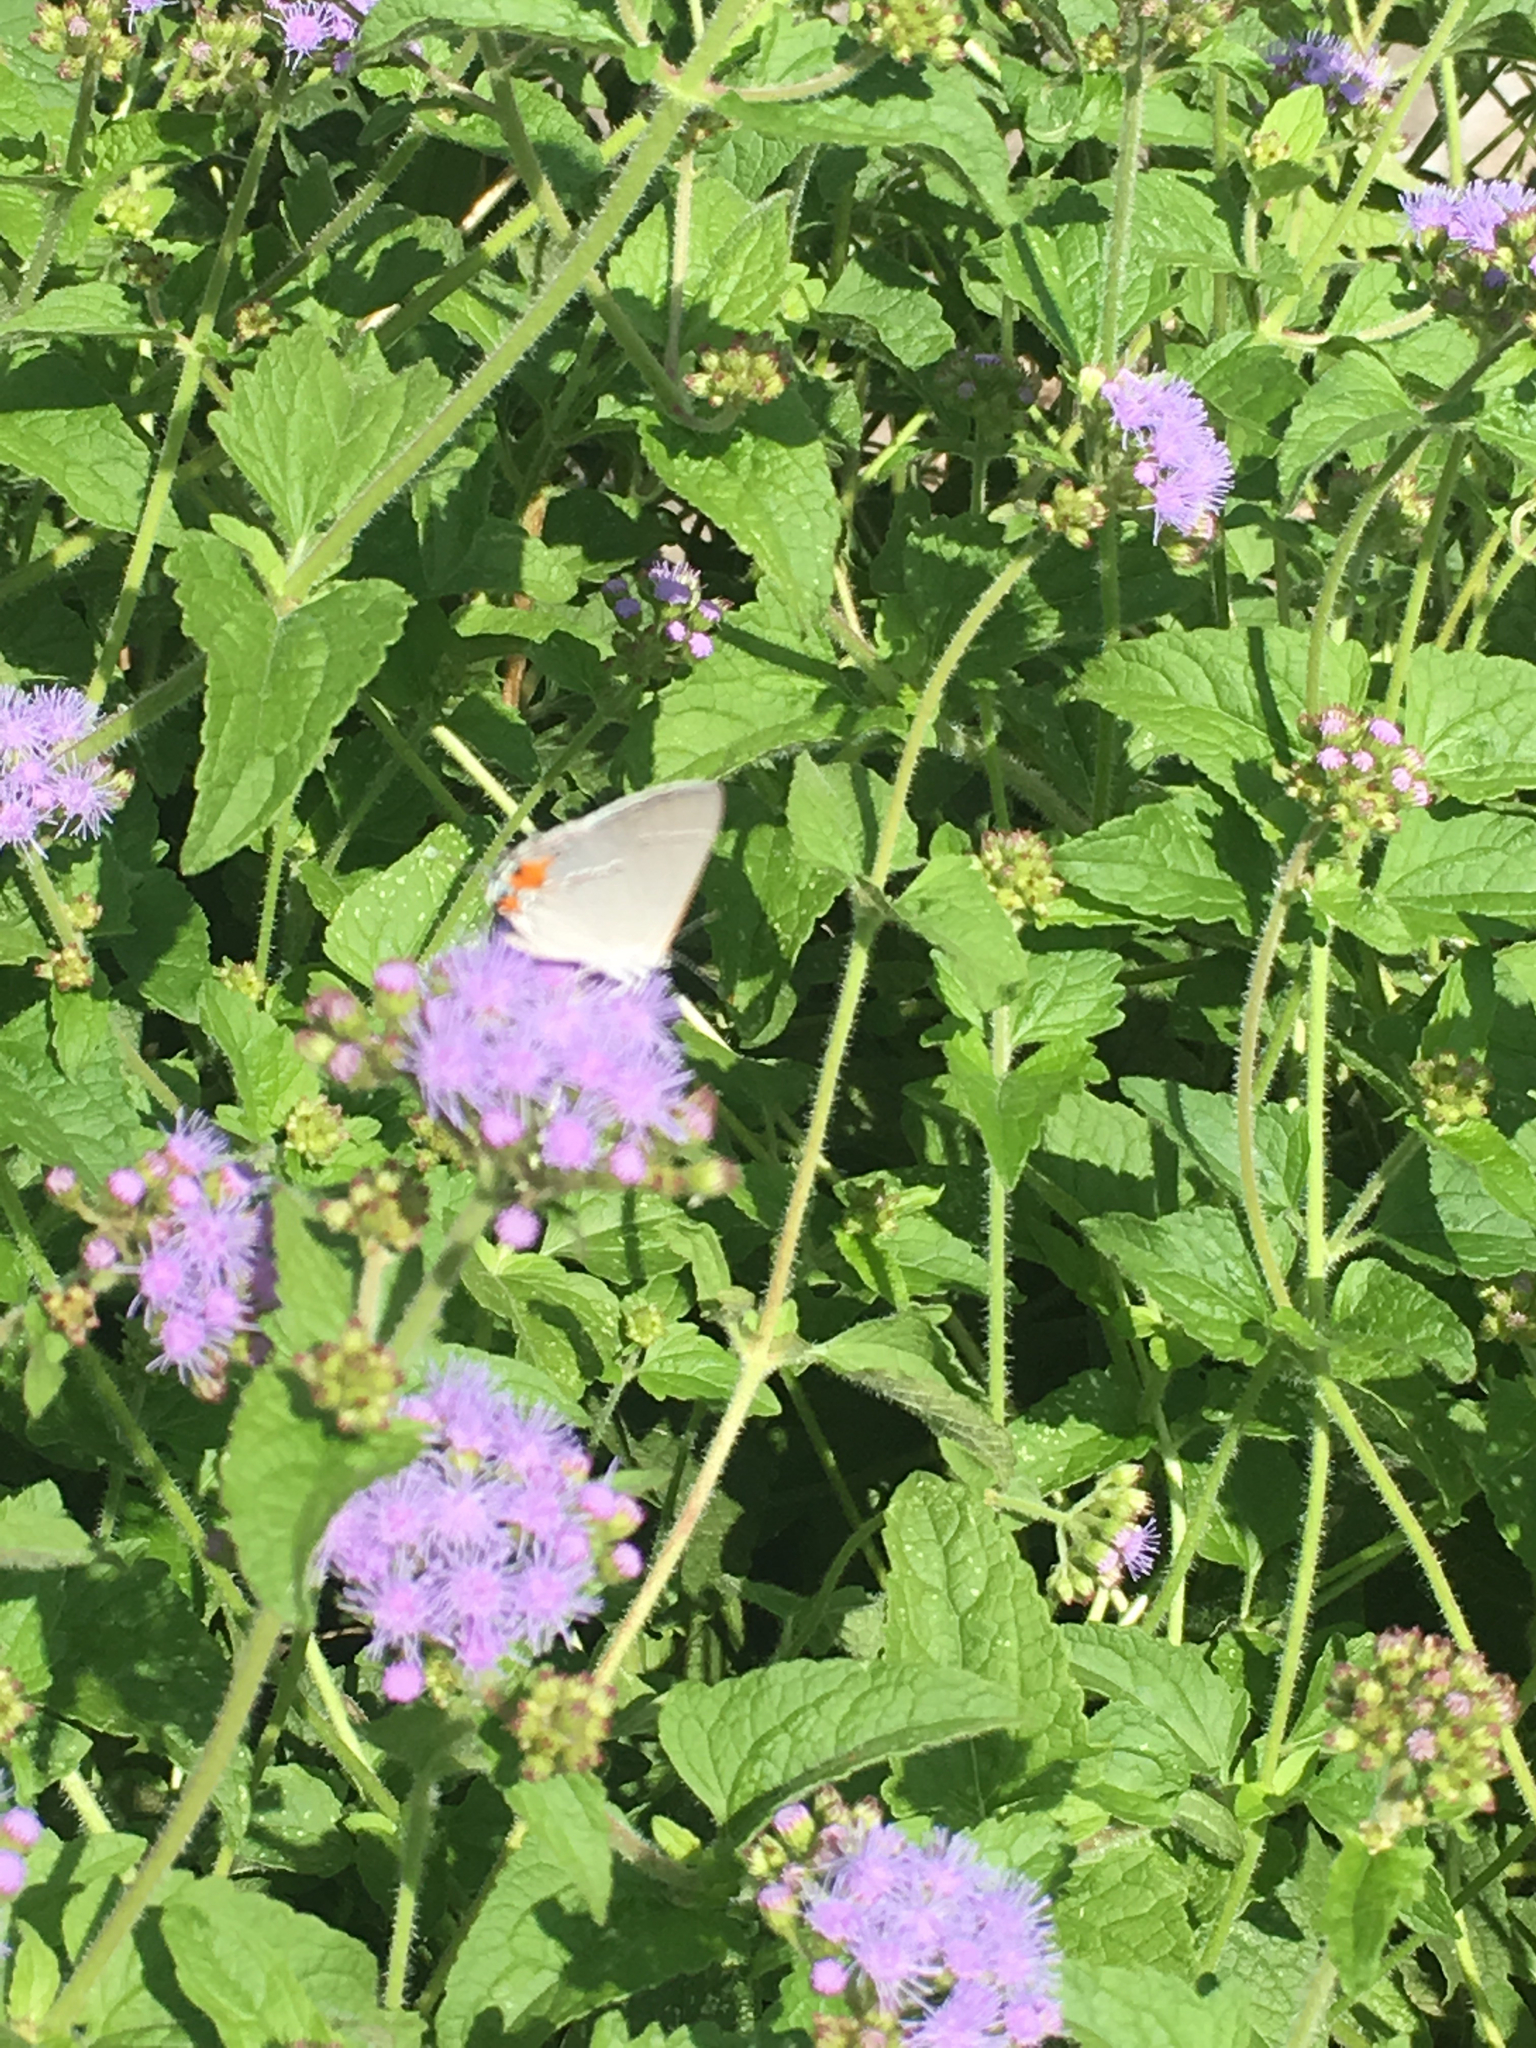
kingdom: Animalia
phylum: Arthropoda
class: Insecta
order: Lepidoptera
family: Lycaenidae
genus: Strymon
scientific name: Strymon melinus
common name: Gray hairstreak
